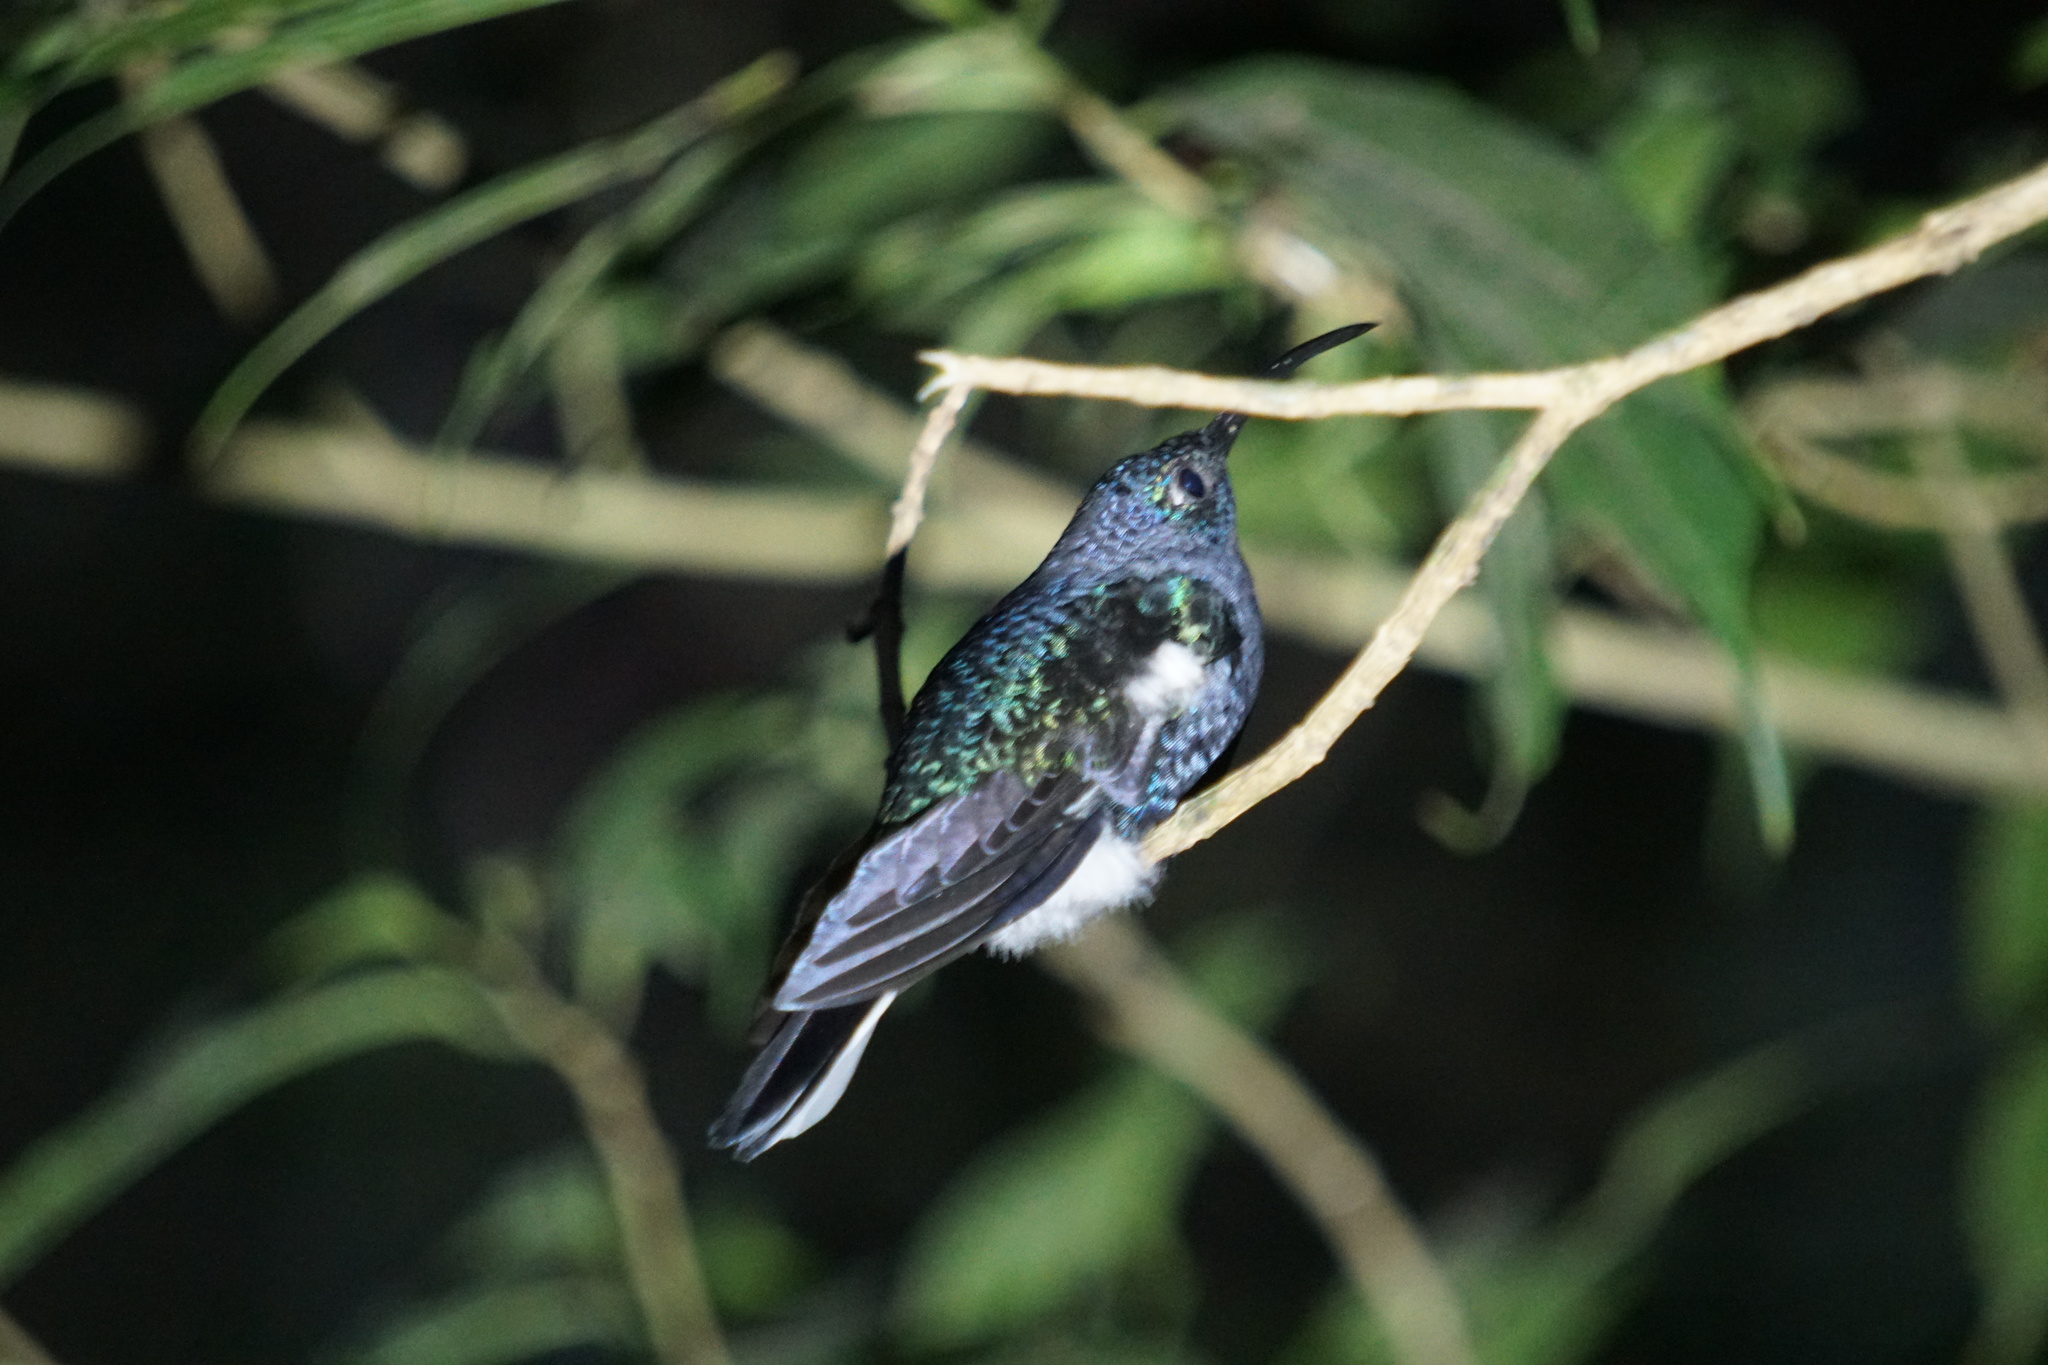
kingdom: Animalia
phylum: Chordata
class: Aves
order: Apodiformes
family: Trochilidae
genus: Campylopterus
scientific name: Campylopterus hemileucurus
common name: Violet sabrewing
